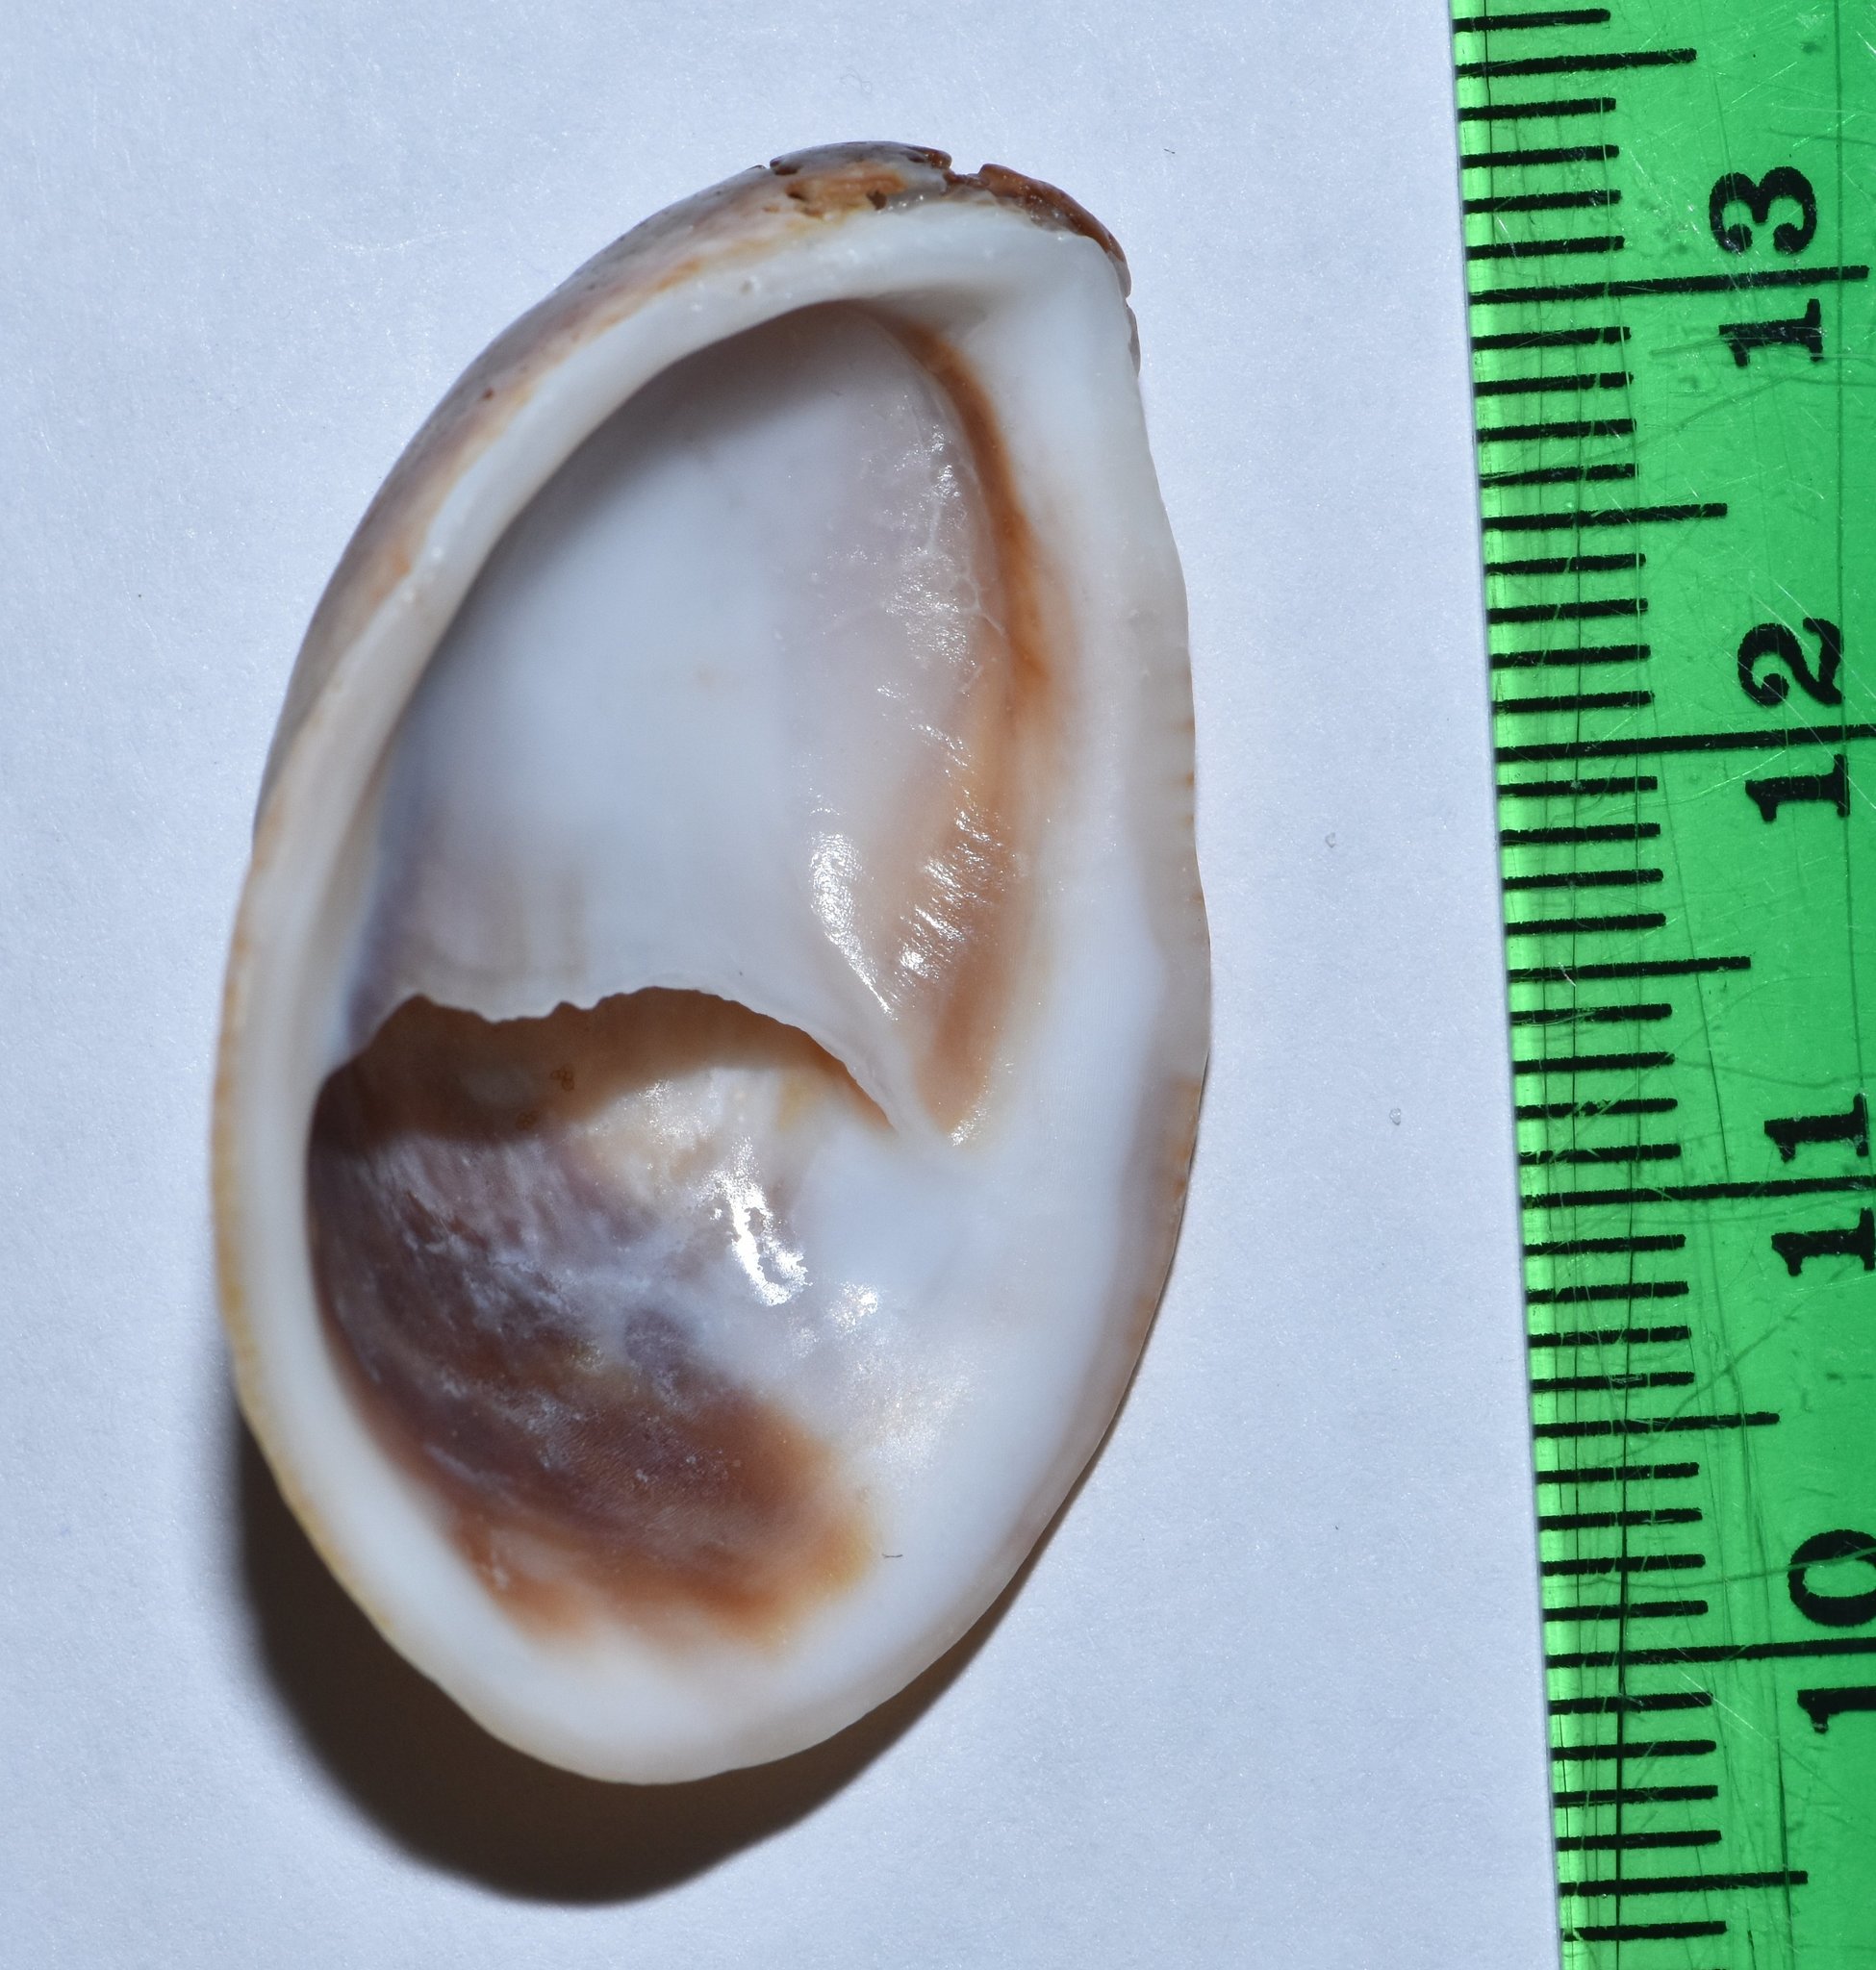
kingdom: Animalia
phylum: Mollusca
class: Gastropoda
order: Littorinimorpha
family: Calyptraeidae
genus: Crepidula
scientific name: Crepidula fornicata
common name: Slipper limpet
